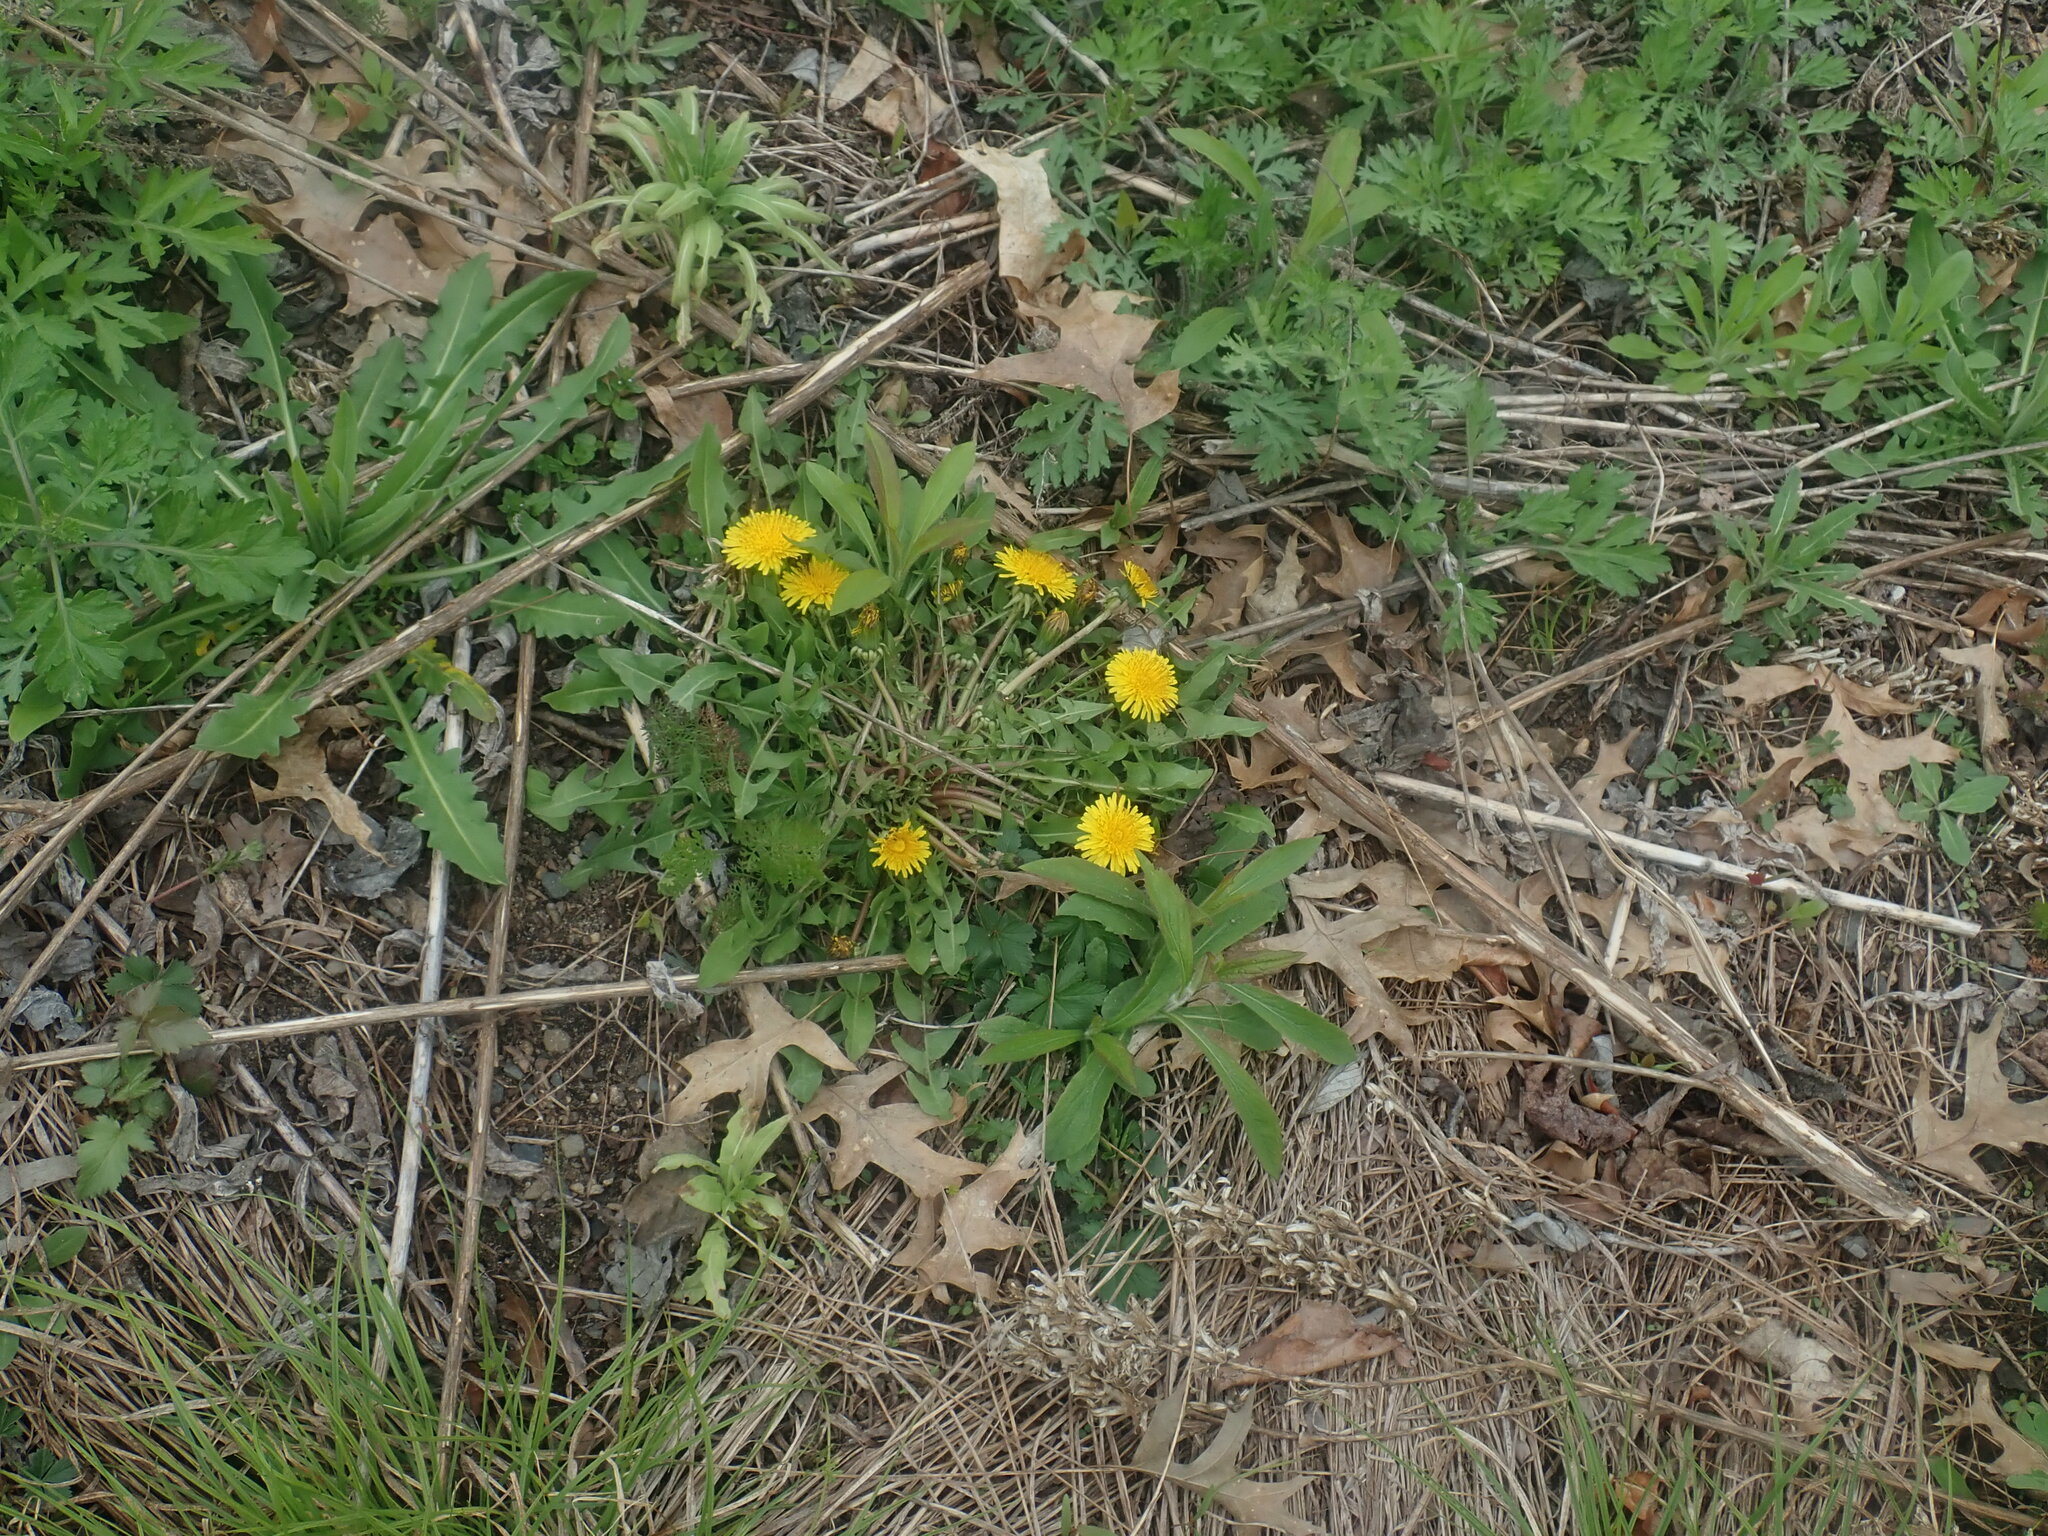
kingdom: Plantae
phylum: Tracheophyta
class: Magnoliopsida
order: Asterales
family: Asteraceae
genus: Taraxacum
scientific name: Taraxacum
